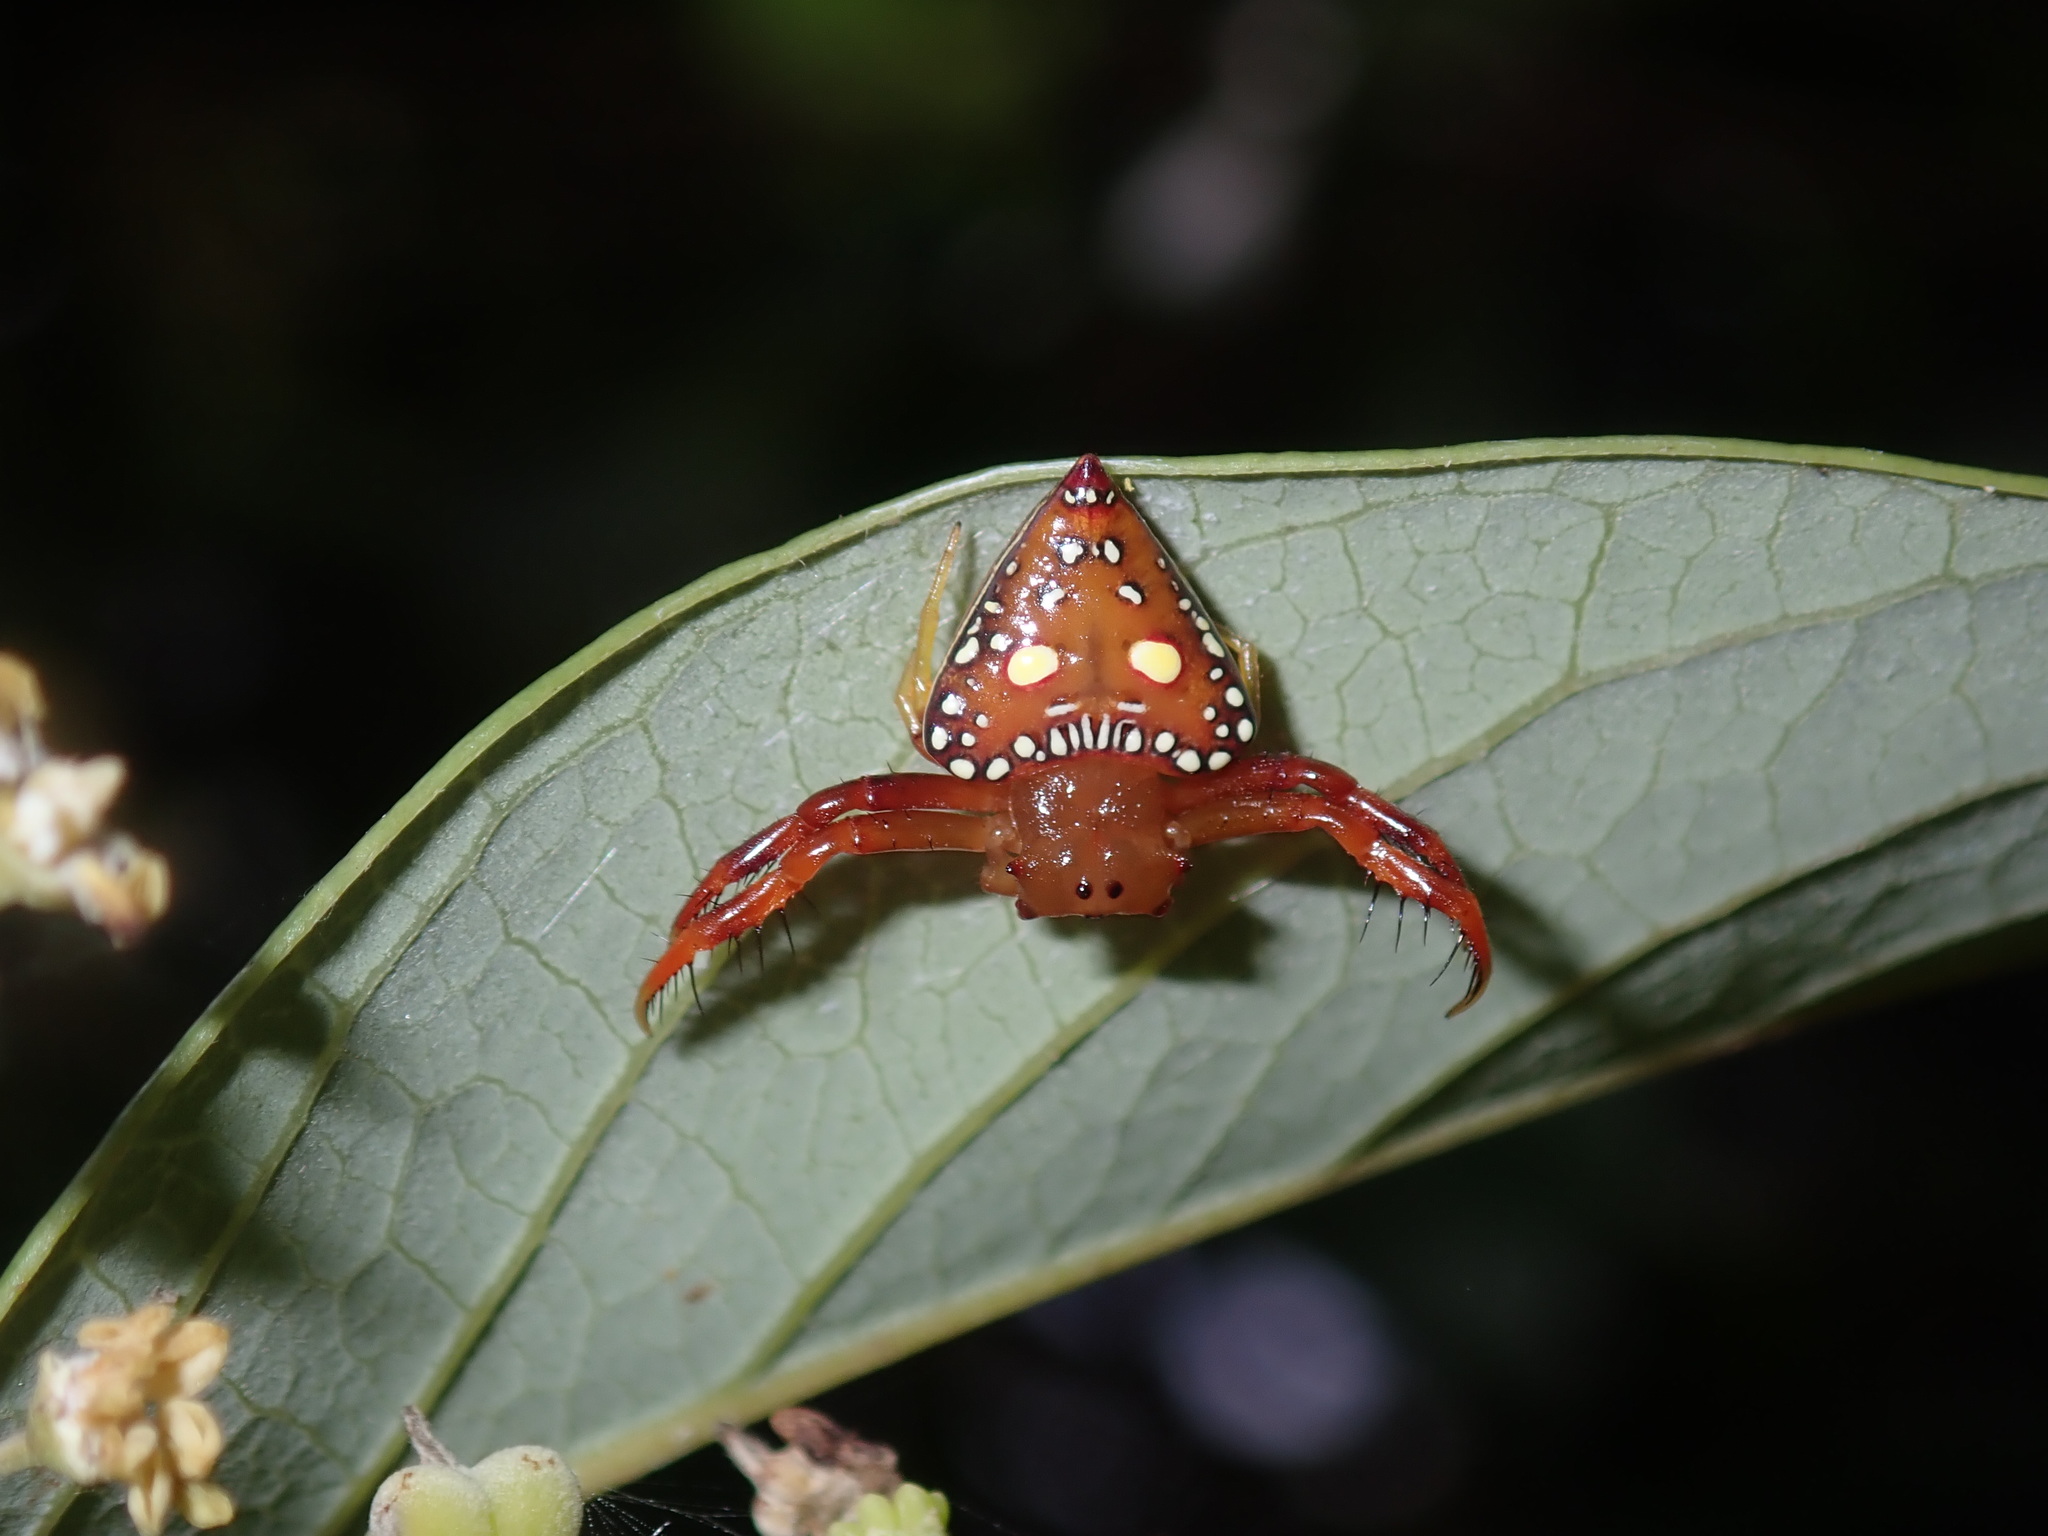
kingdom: Animalia
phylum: Arthropoda
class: Arachnida
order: Araneae
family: Arkyidae
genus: Arkys
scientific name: Arkys lancearius
